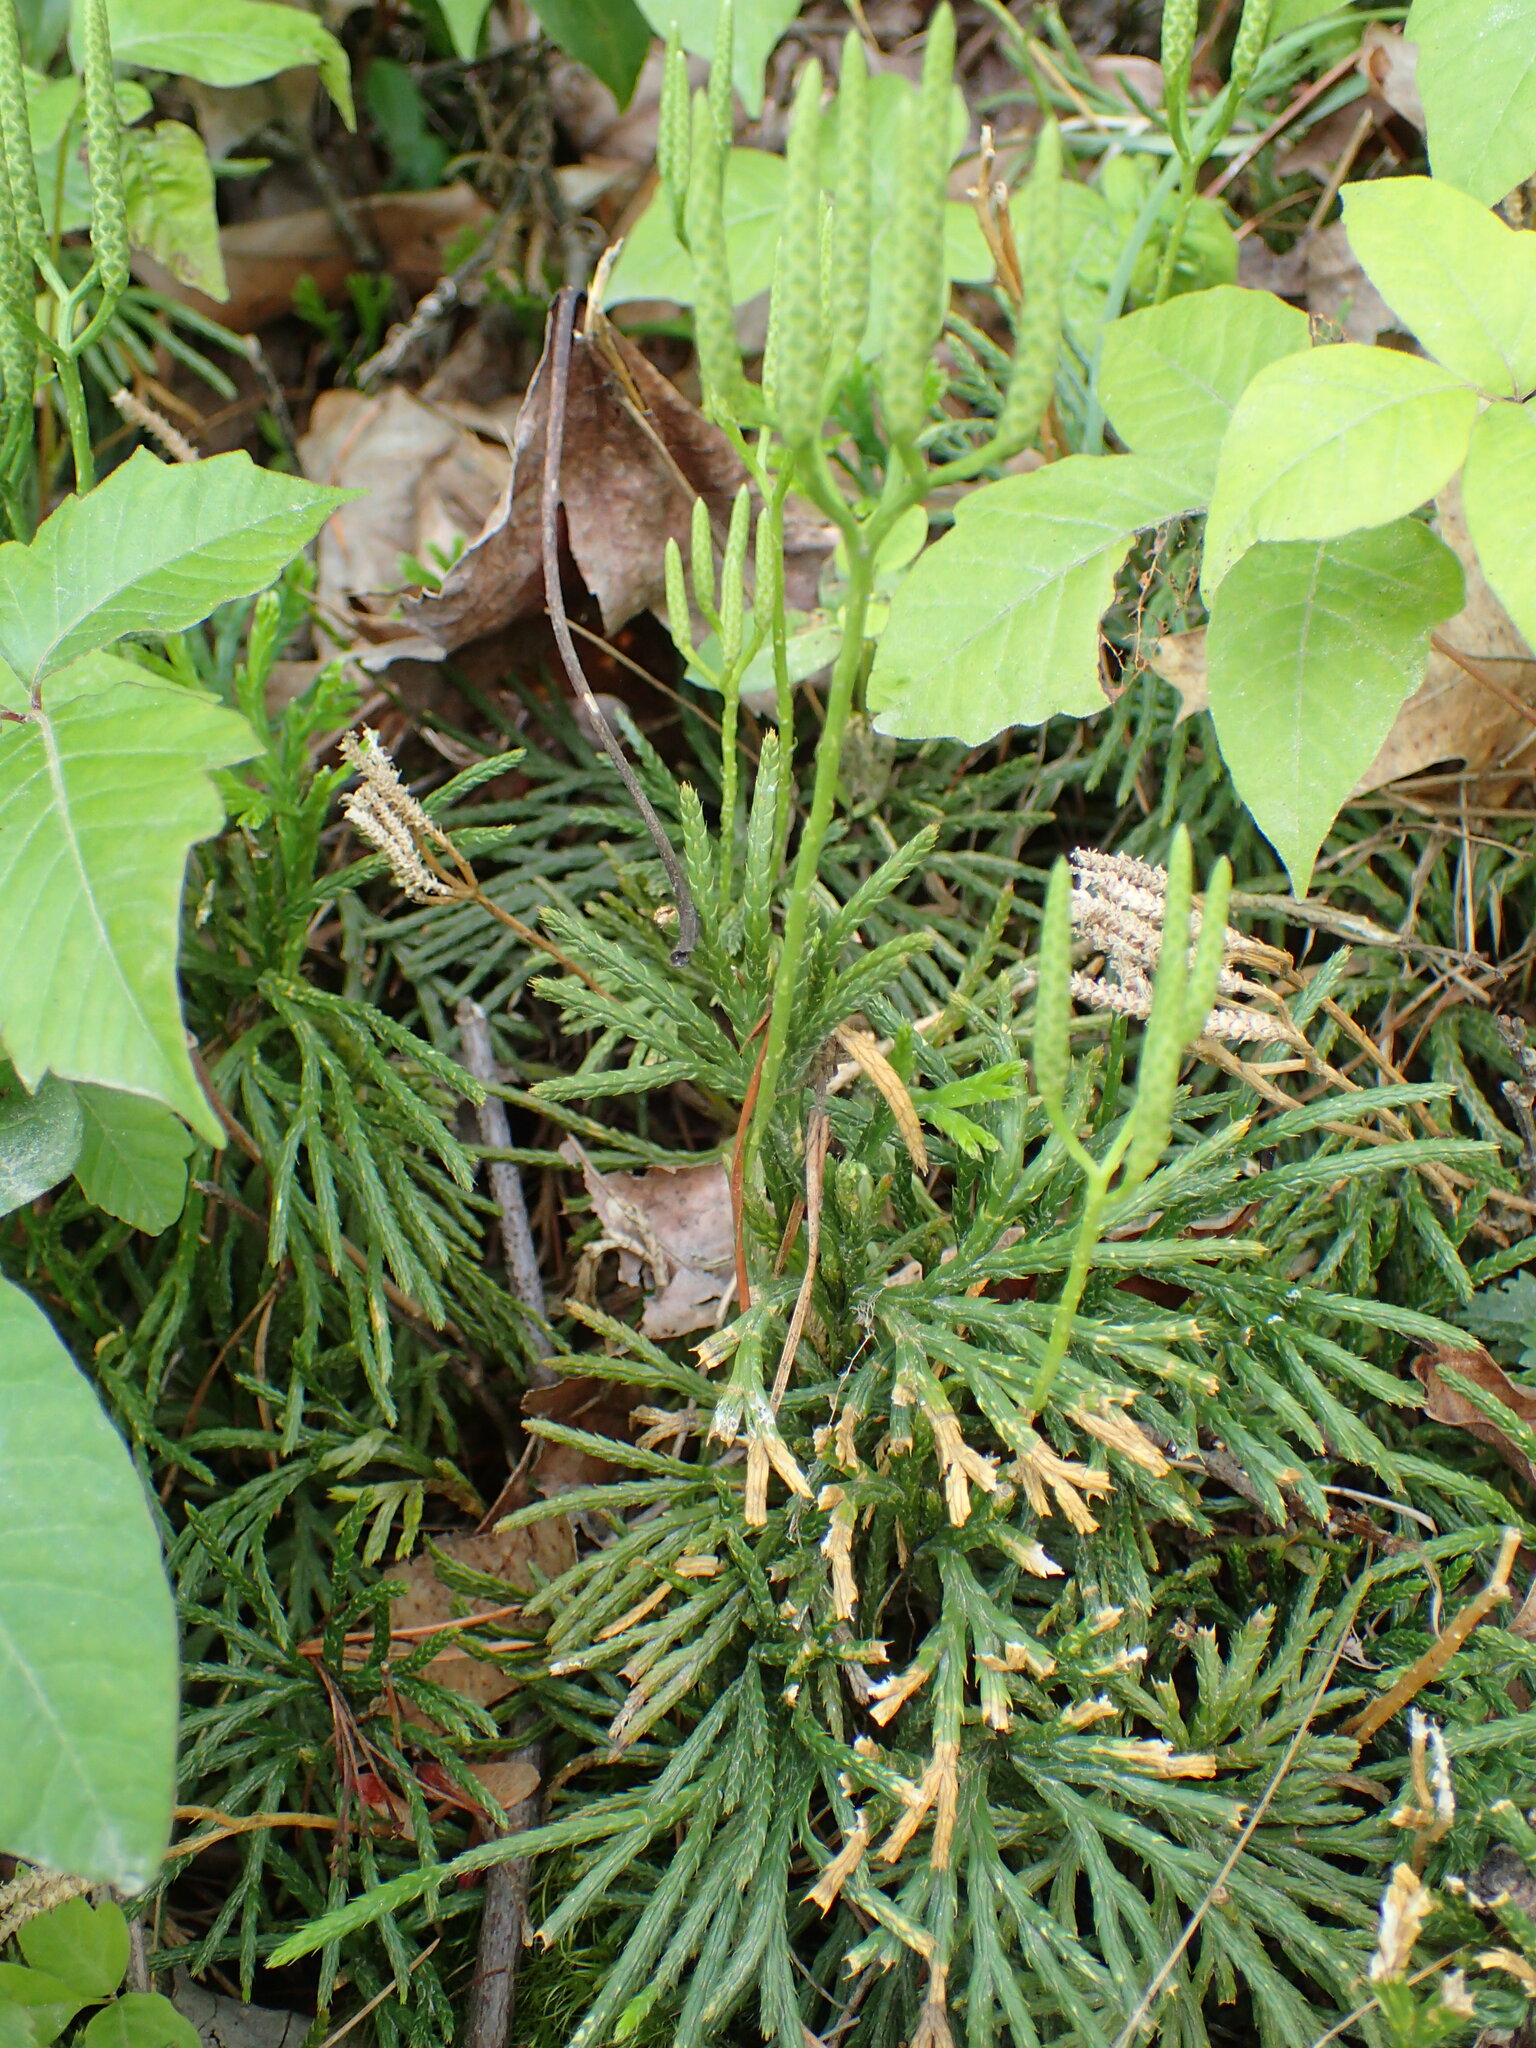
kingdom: Plantae
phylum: Tracheophyta
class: Lycopodiopsida
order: Lycopodiales
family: Lycopodiaceae
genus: Diphasiastrum
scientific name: Diphasiastrum digitatum
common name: Southern running-pine
